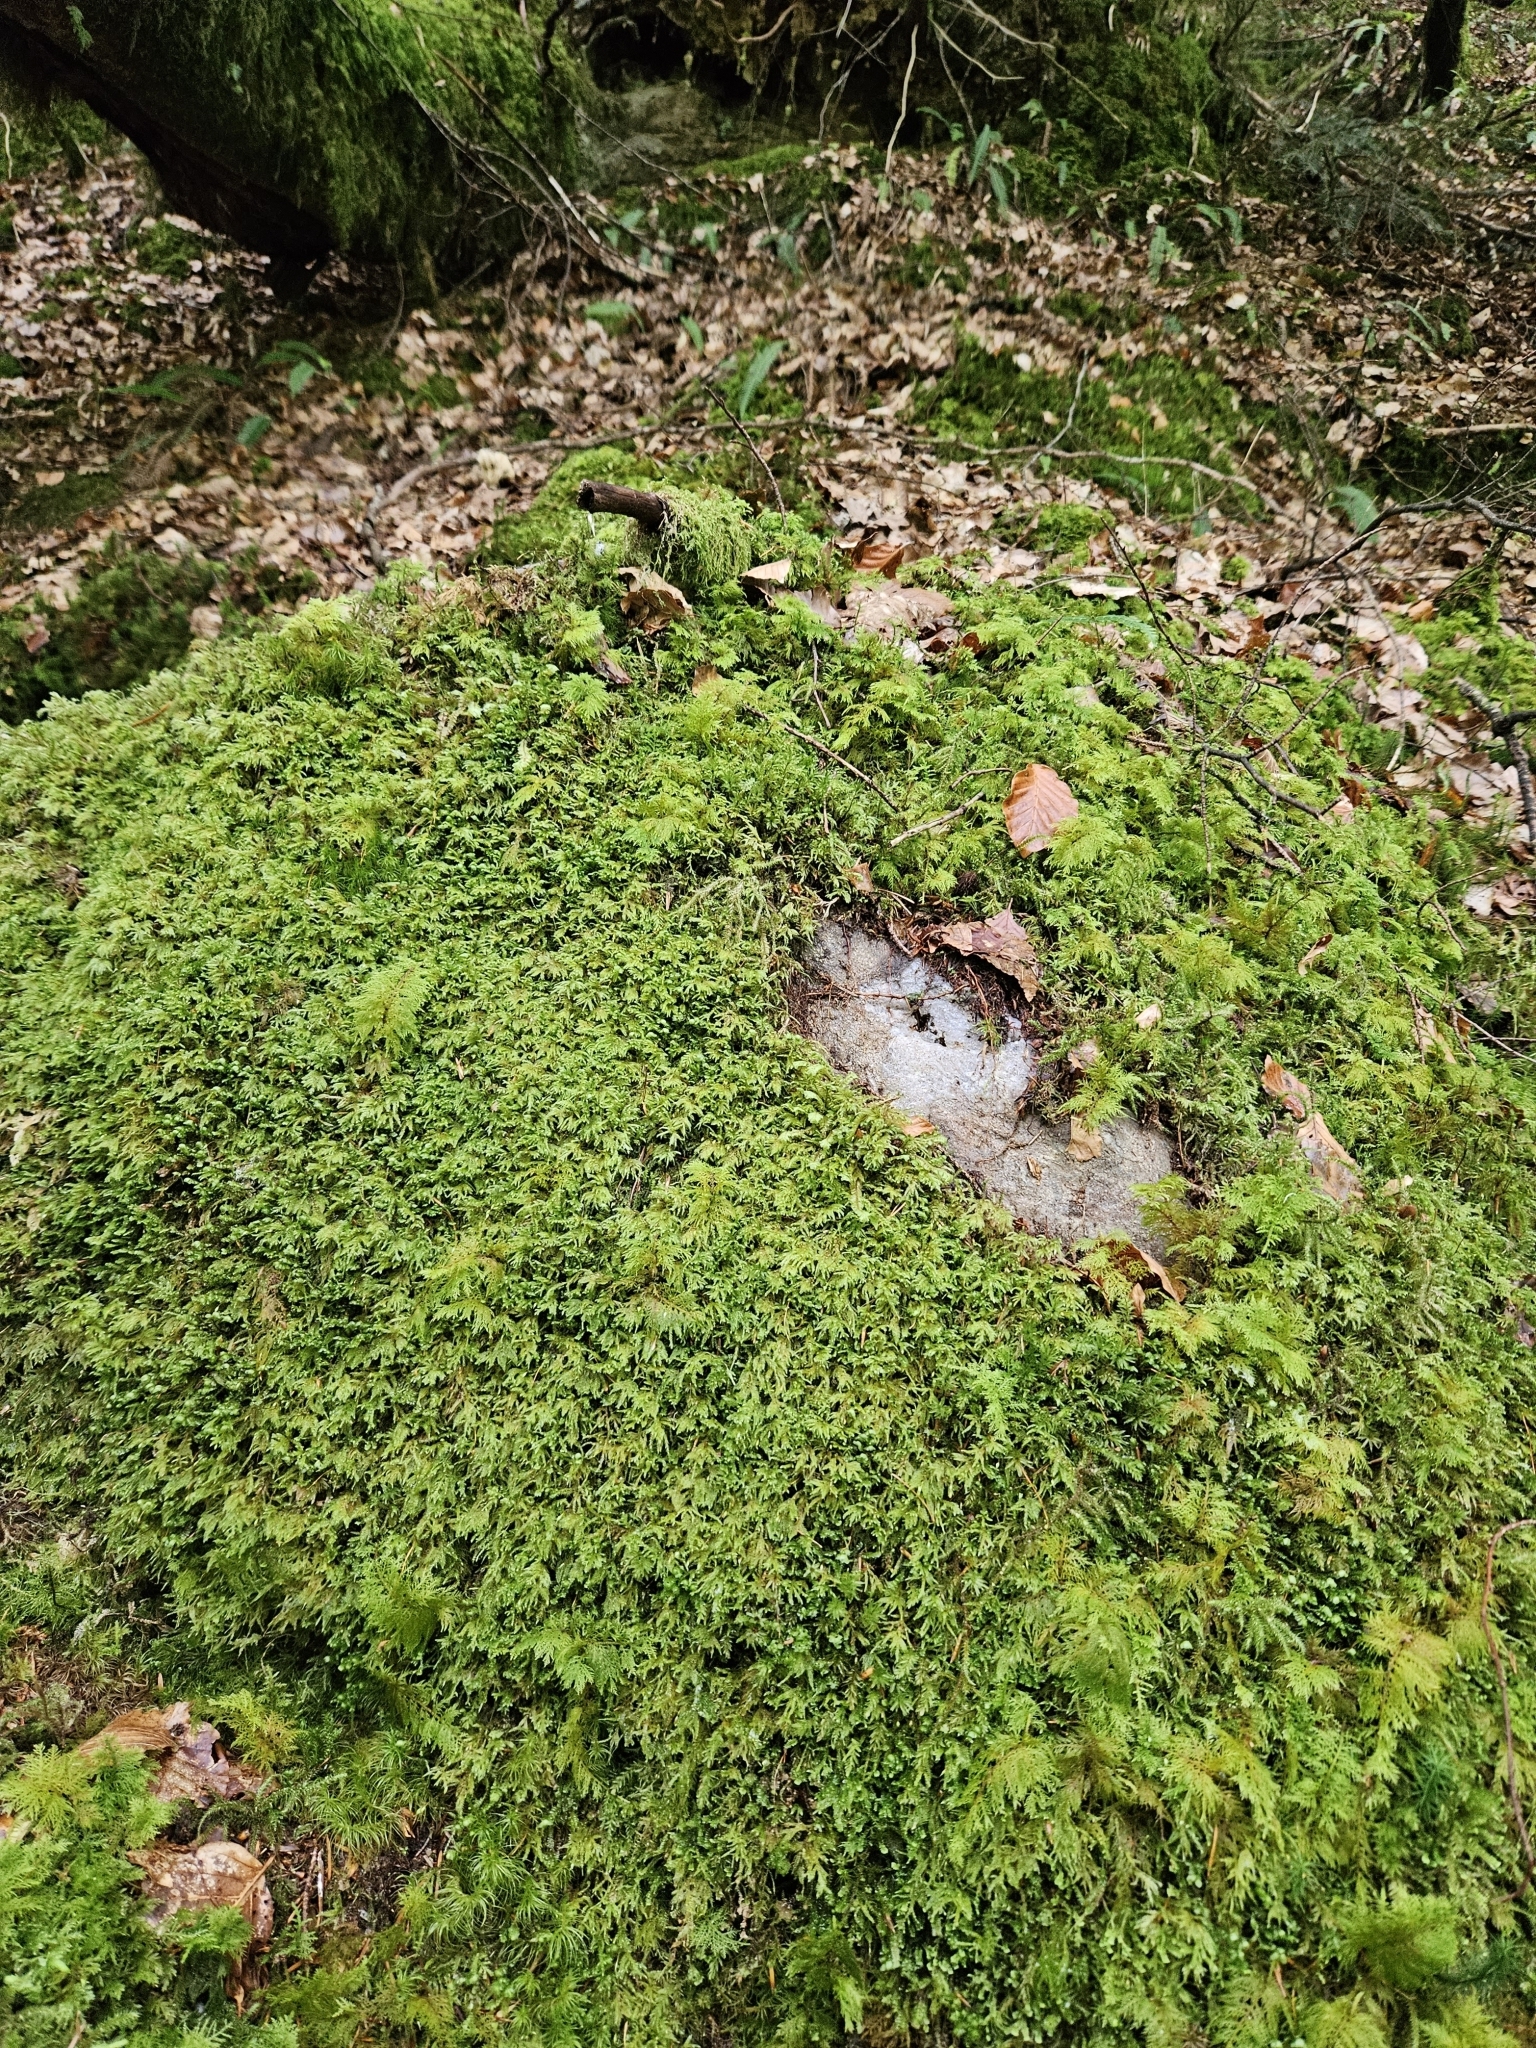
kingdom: Plantae
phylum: Marchantiophyta
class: Jungermanniopsida
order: Jungermanniales
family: Plagiochilaceae
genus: Plagiochila
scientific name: Plagiochila asplenioides
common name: Greater featherwort
